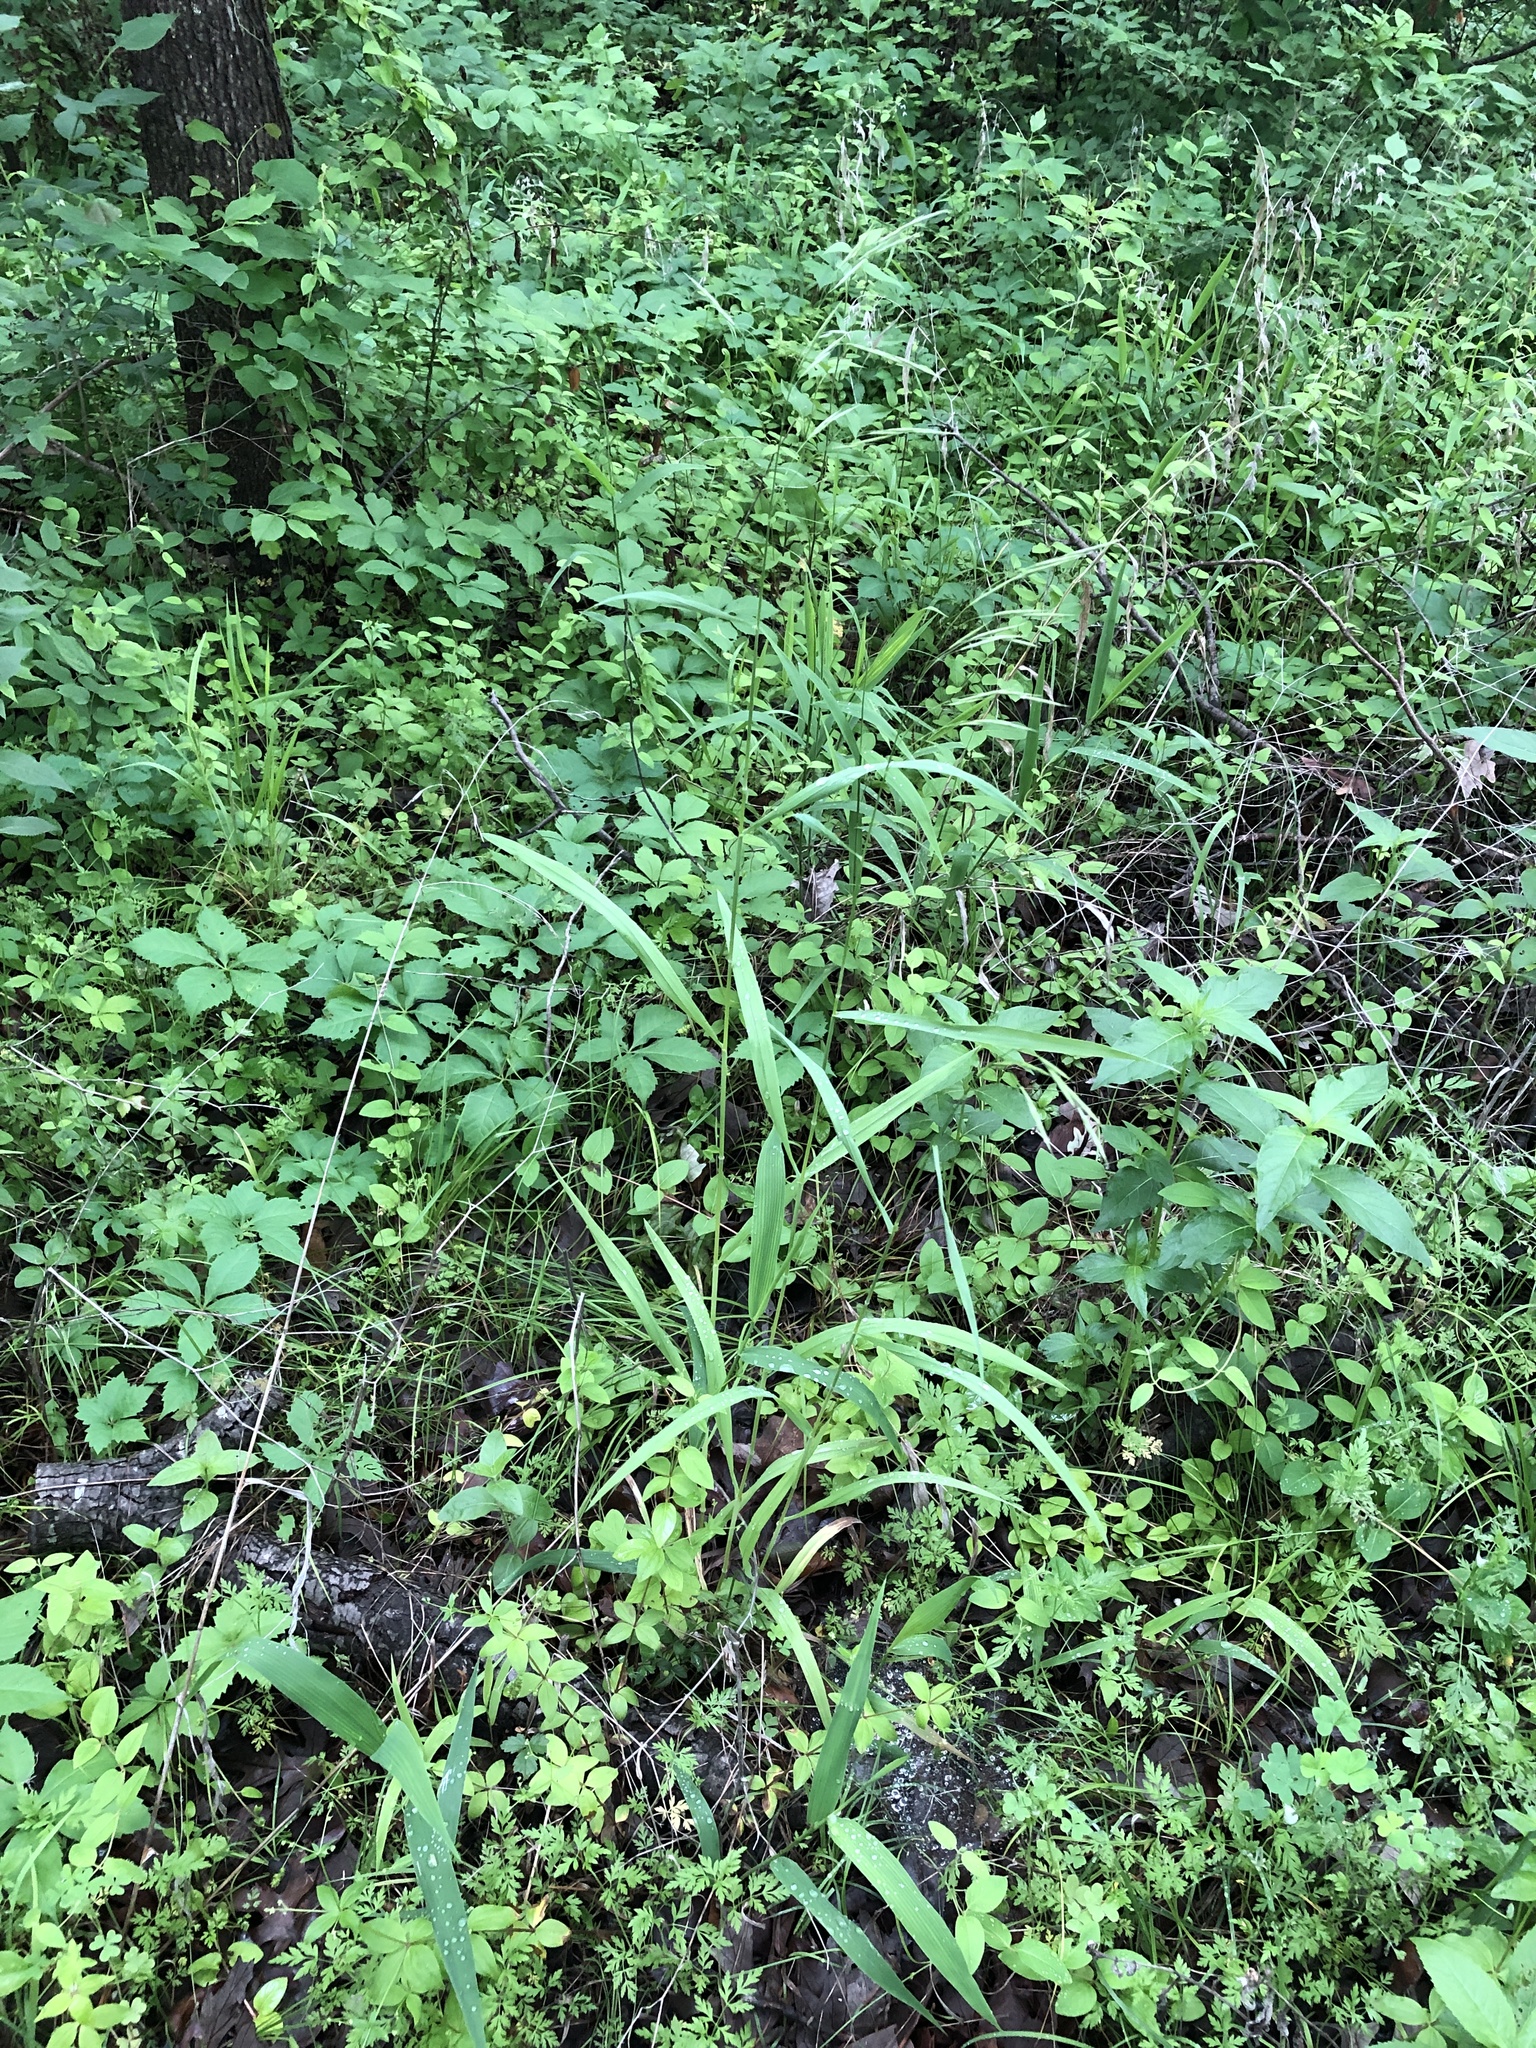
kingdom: Plantae
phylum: Tracheophyta
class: Liliopsida
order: Poales
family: Poaceae
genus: Bromus
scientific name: Bromus pubescens
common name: Hairy wood brome grass
